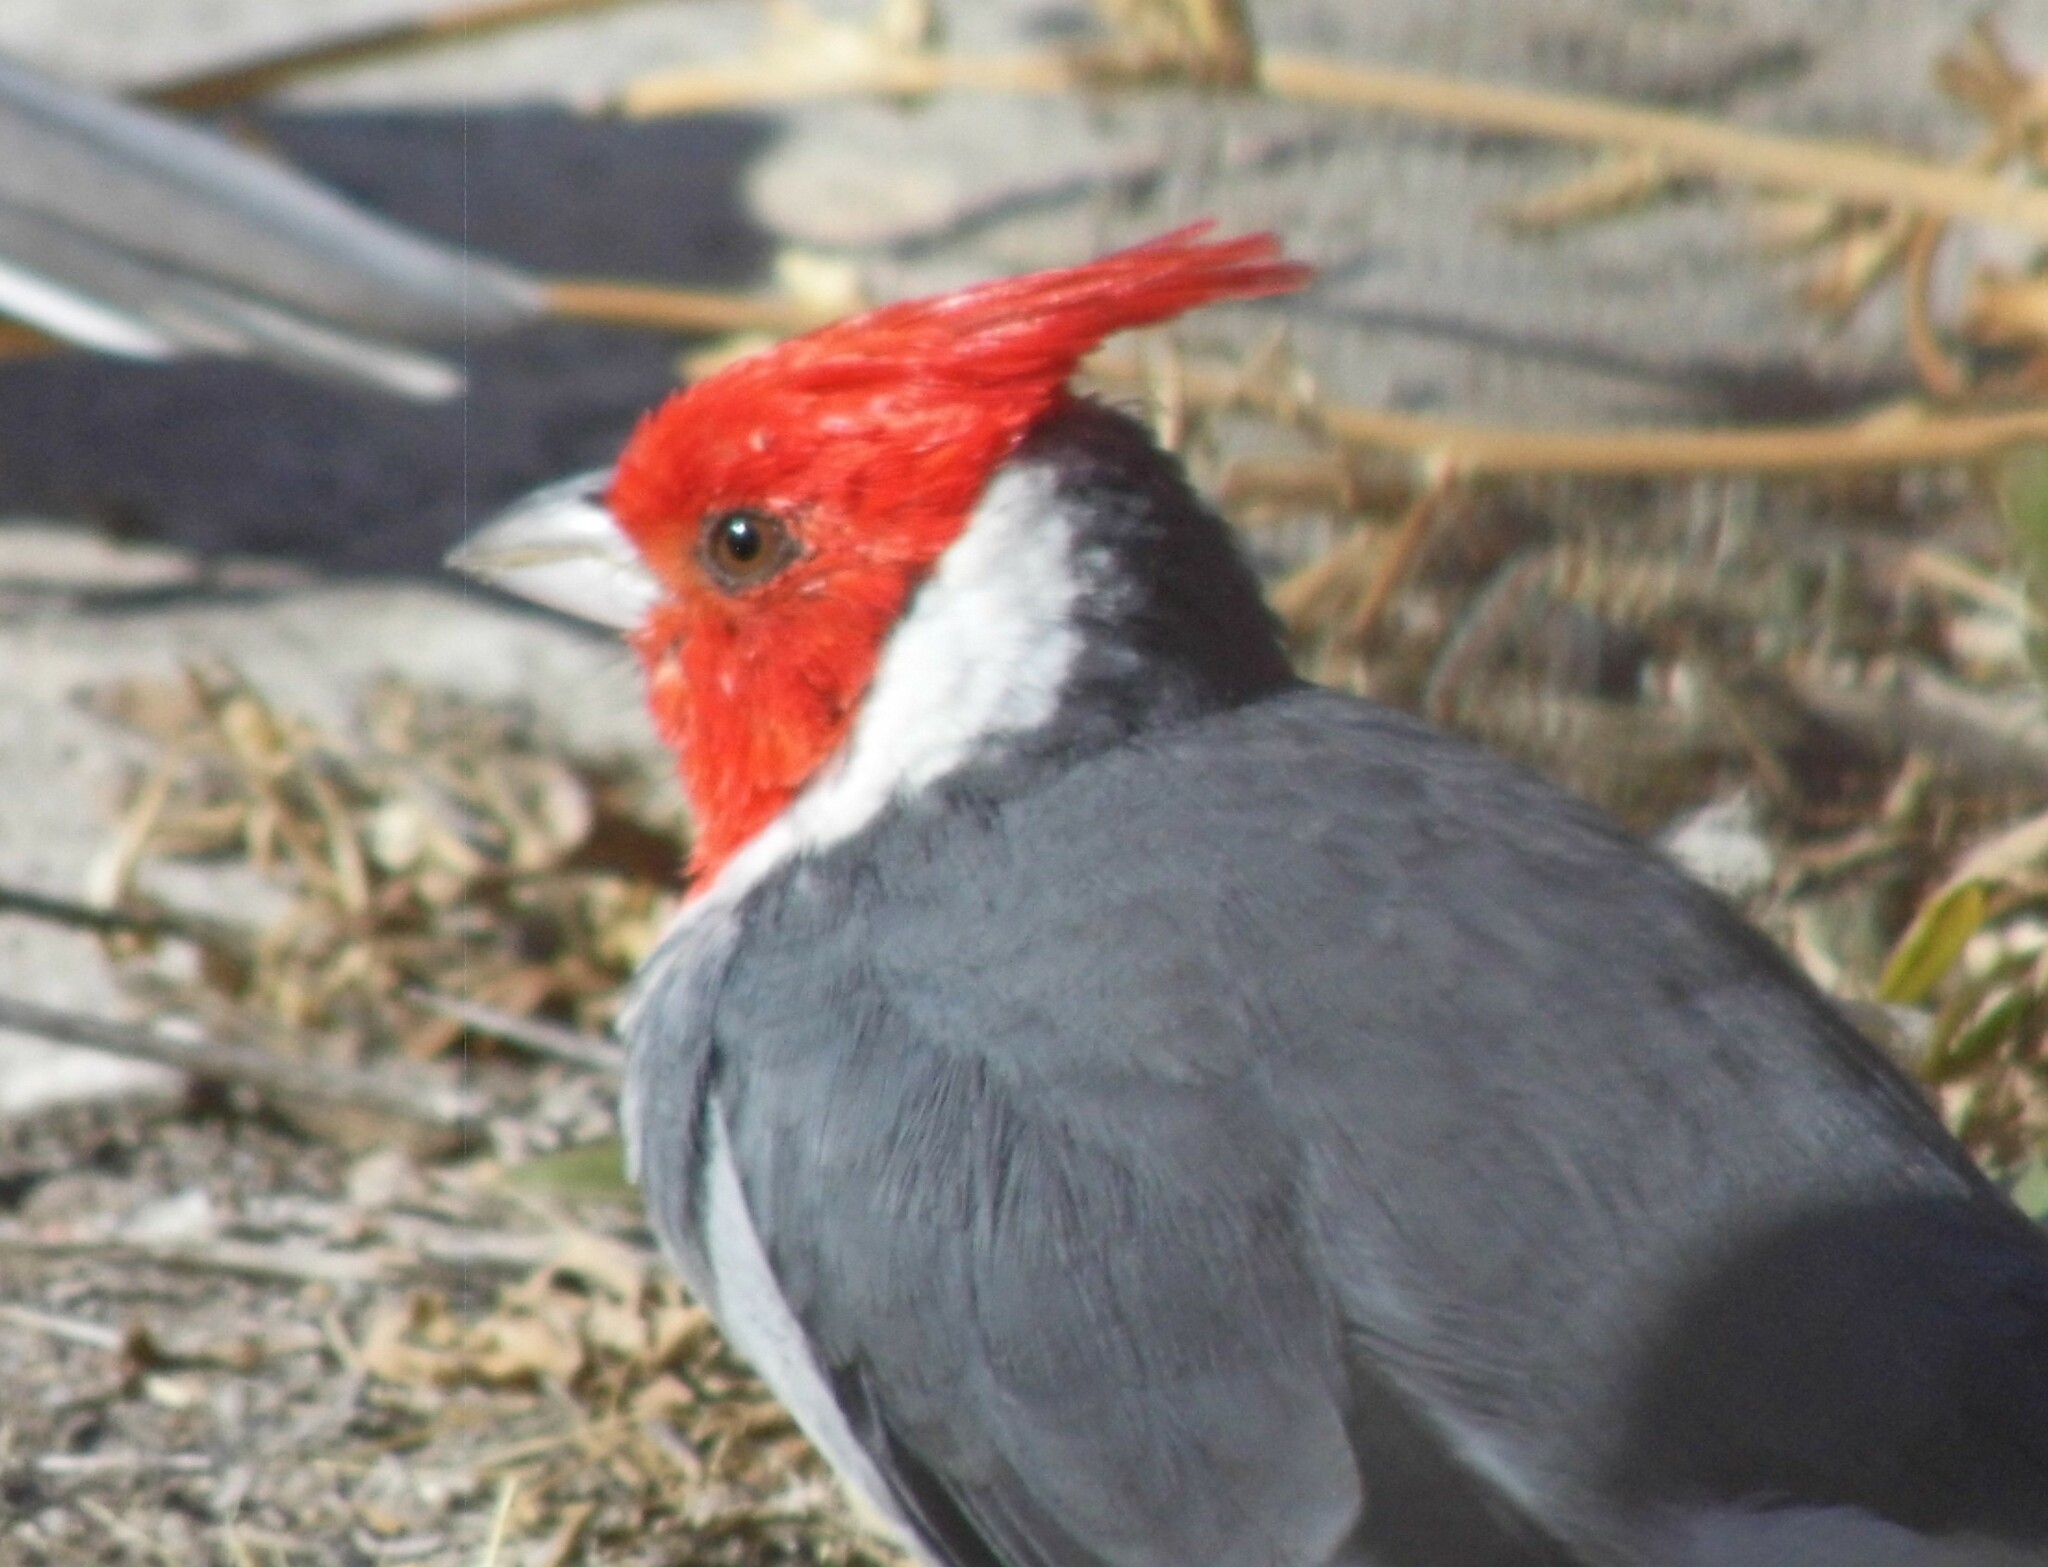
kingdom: Animalia
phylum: Chordata
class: Aves
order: Passeriformes
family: Thraupidae
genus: Paroaria
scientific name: Paroaria coronata
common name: Red-crested cardinal
